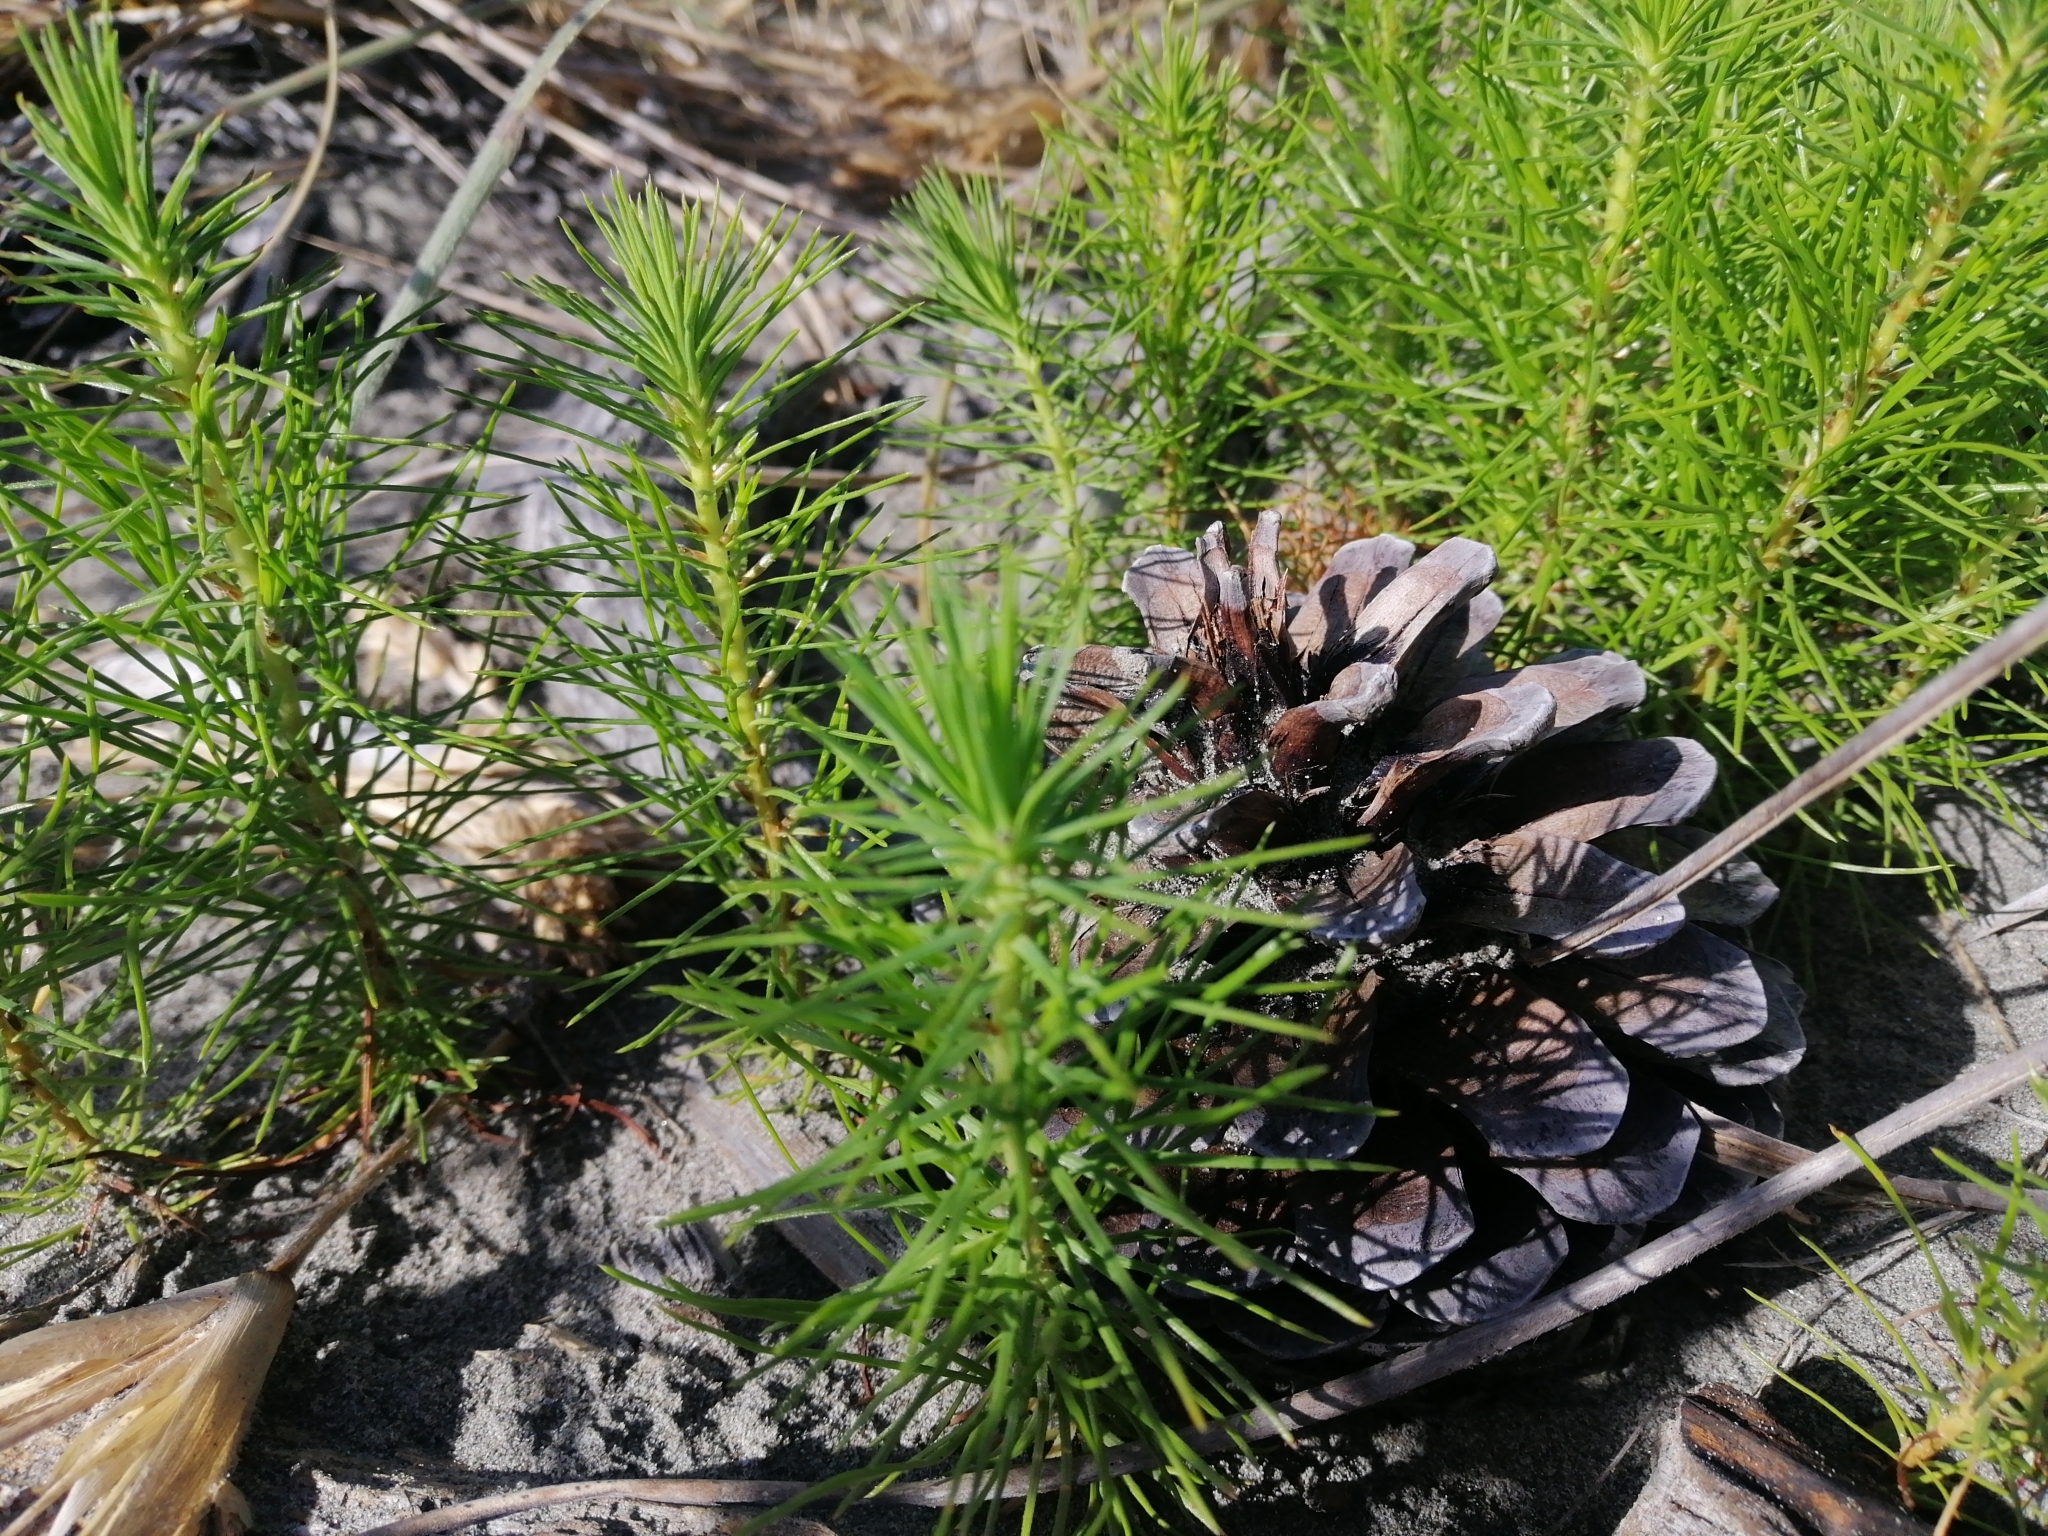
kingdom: Plantae
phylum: Tracheophyta
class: Pinopsida
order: Pinales
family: Pinaceae
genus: Pinus
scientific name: Pinus radiata
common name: Monterey pine
